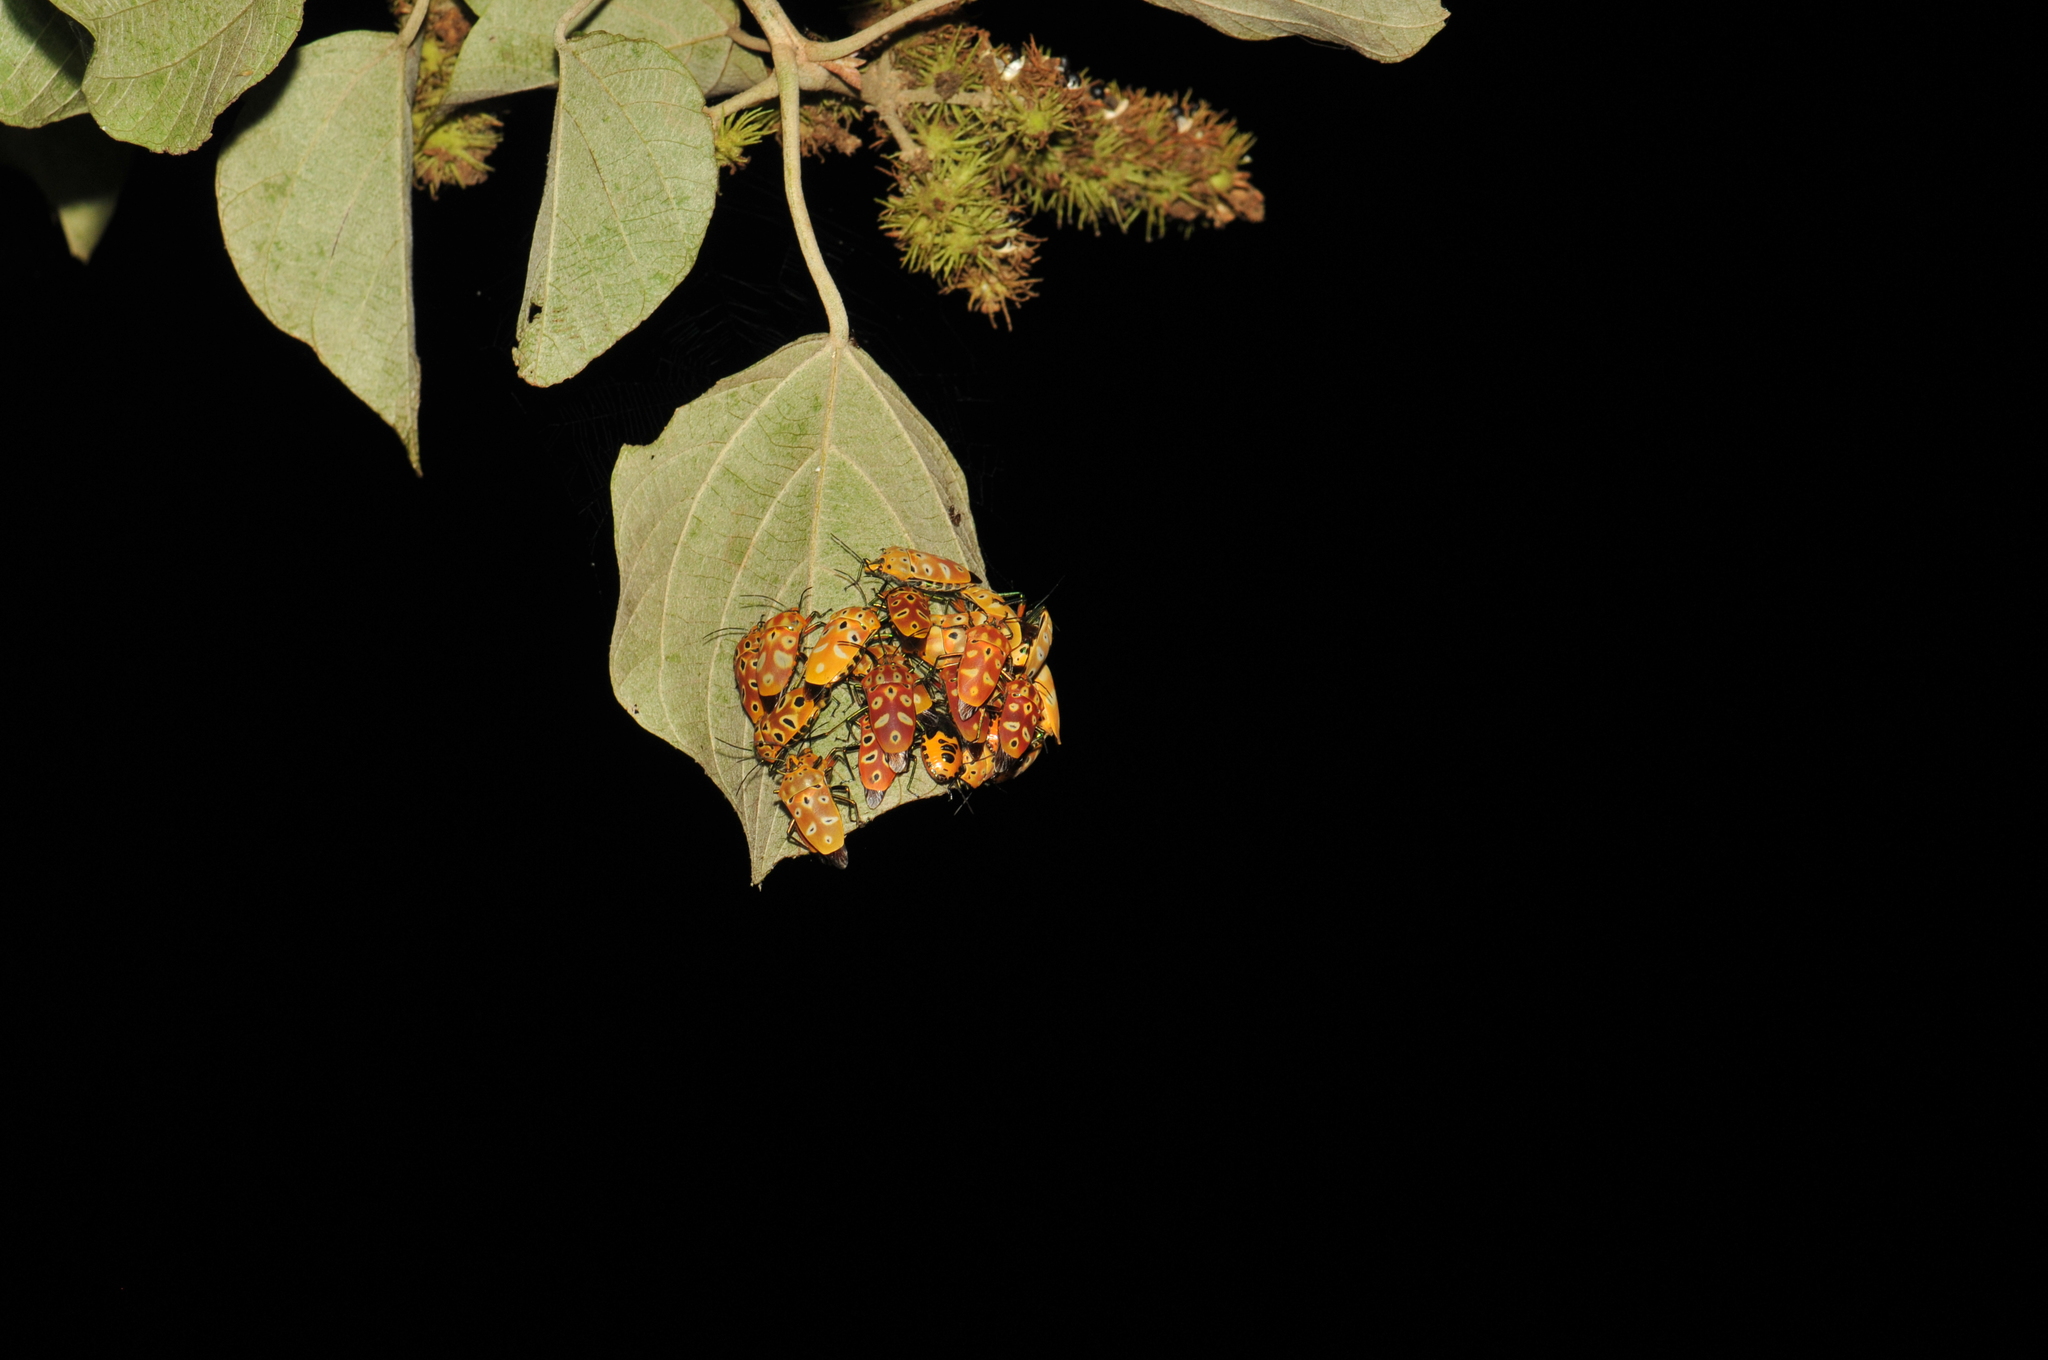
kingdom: Animalia
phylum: Arthropoda
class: Insecta
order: Hemiptera
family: Scutelleridae
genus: Cantao
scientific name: Cantao ocellatus
